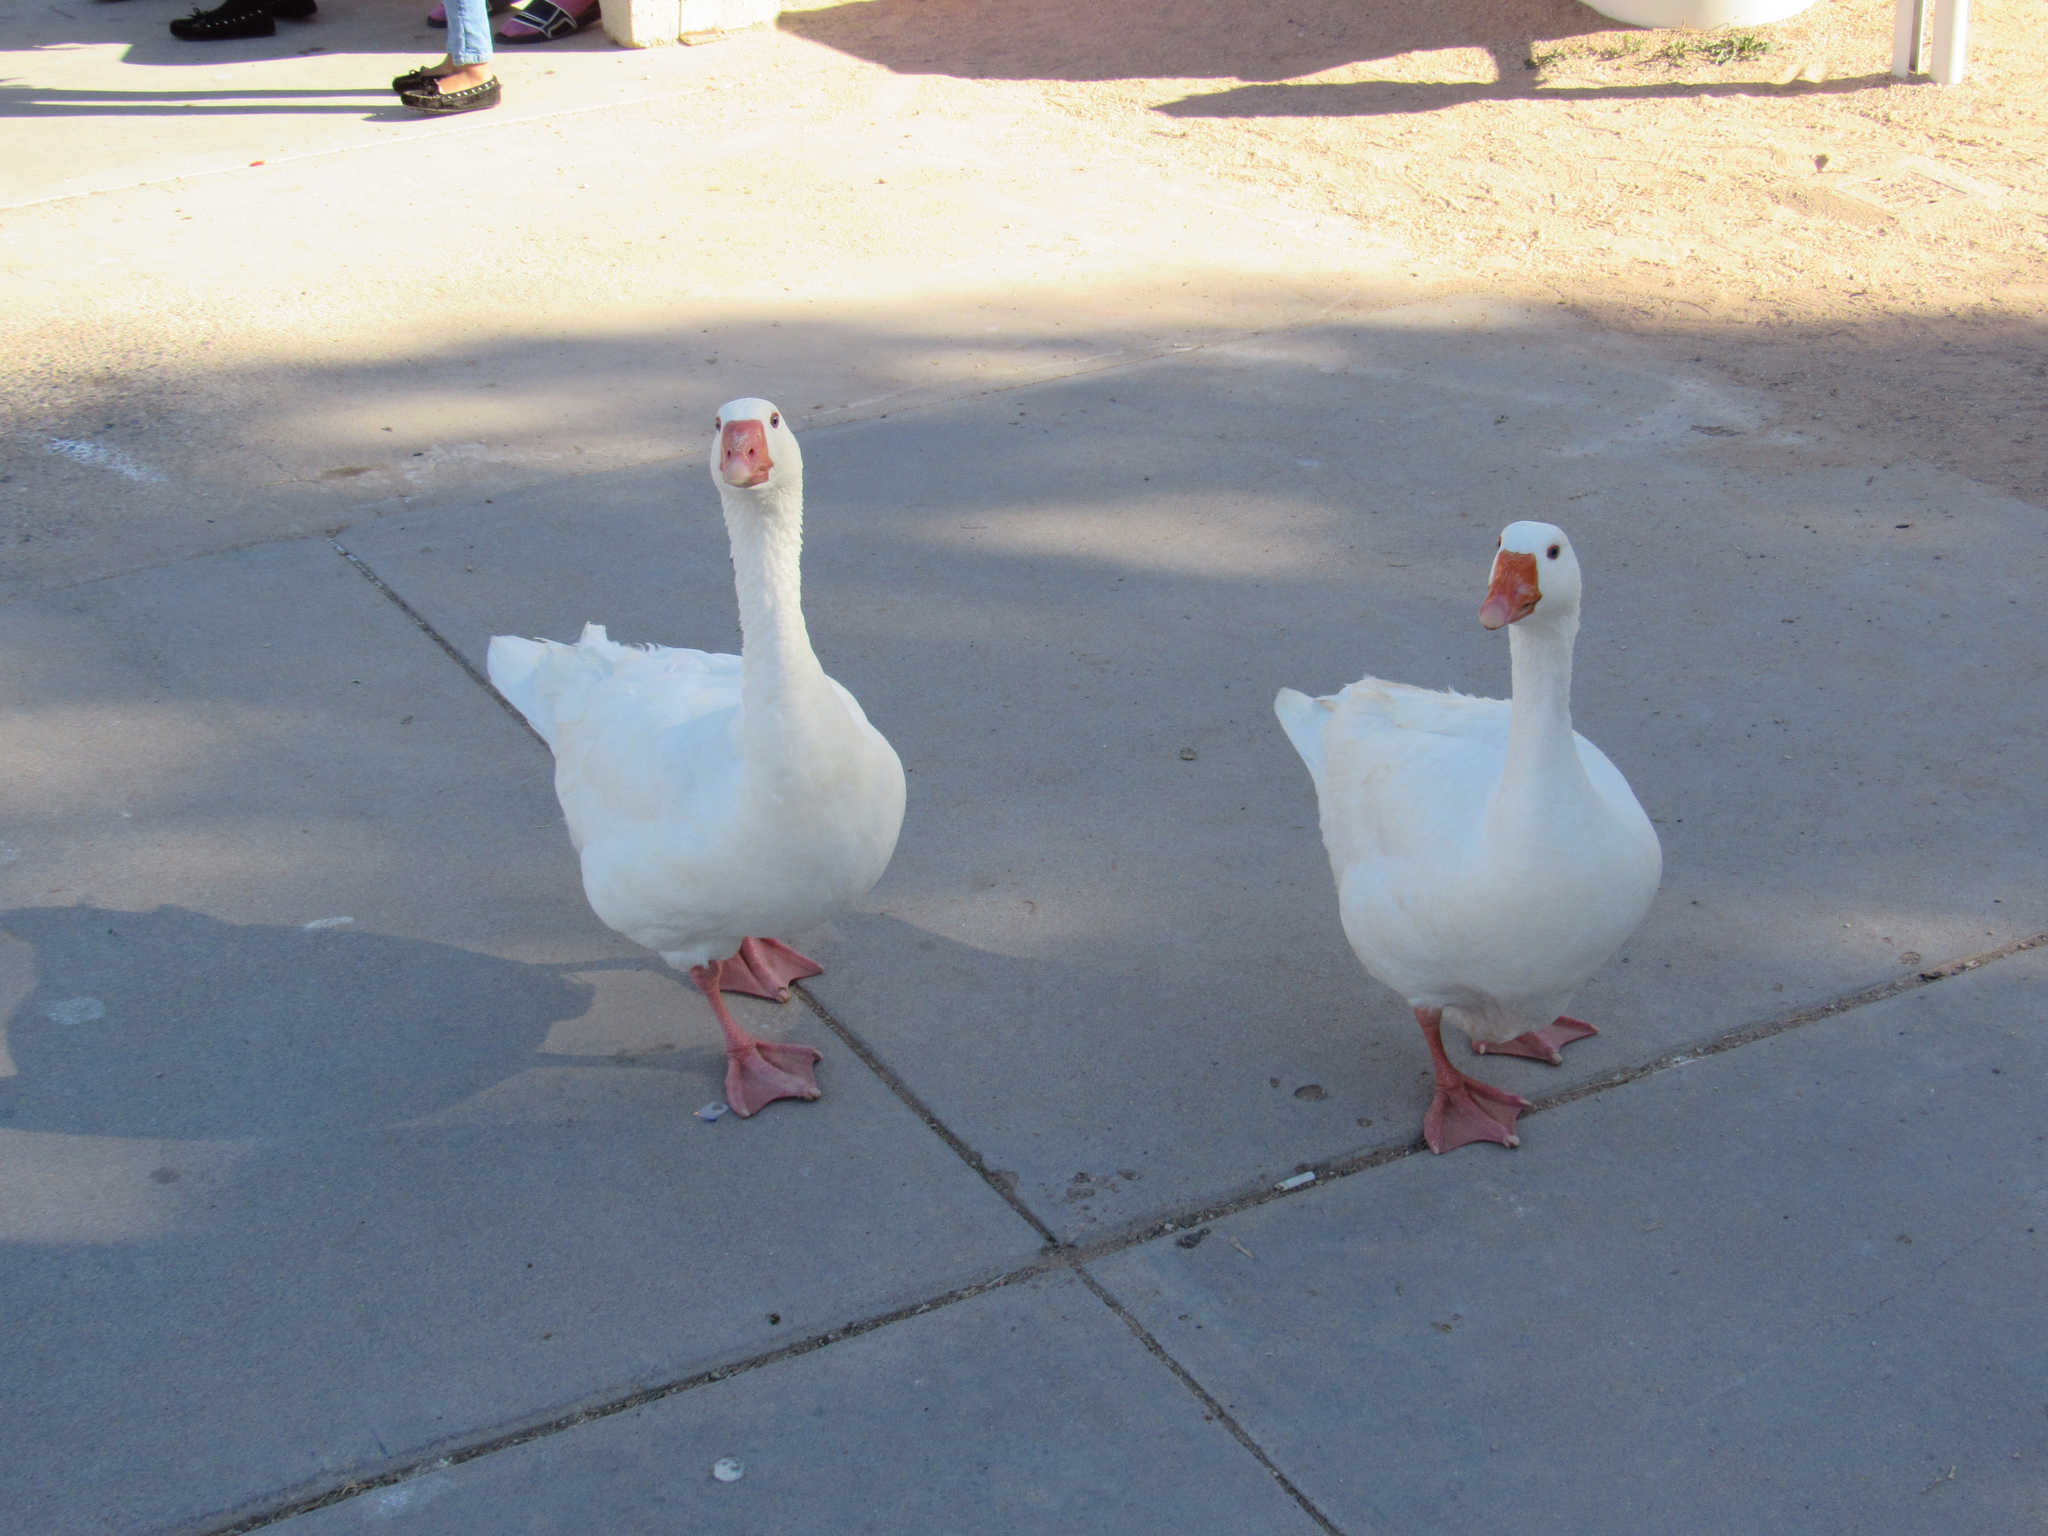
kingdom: Animalia
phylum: Chordata
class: Aves
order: Anseriformes
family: Anatidae
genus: Anser
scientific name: Anser anser
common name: Greylag goose
